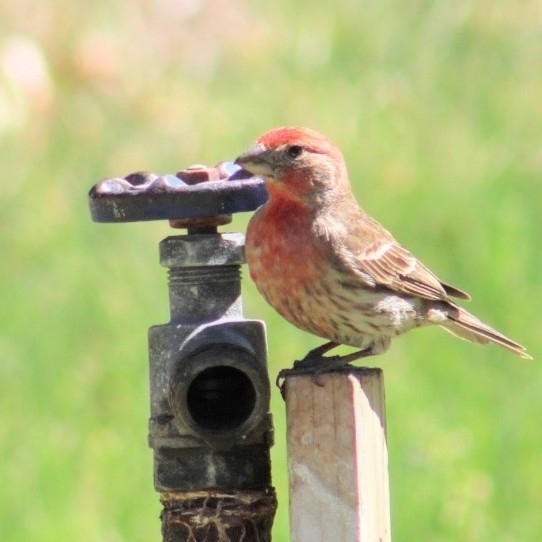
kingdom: Animalia
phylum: Chordata
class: Aves
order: Passeriformes
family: Fringillidae
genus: Haemorhous
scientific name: Haemorhous mexicanus
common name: House finch
